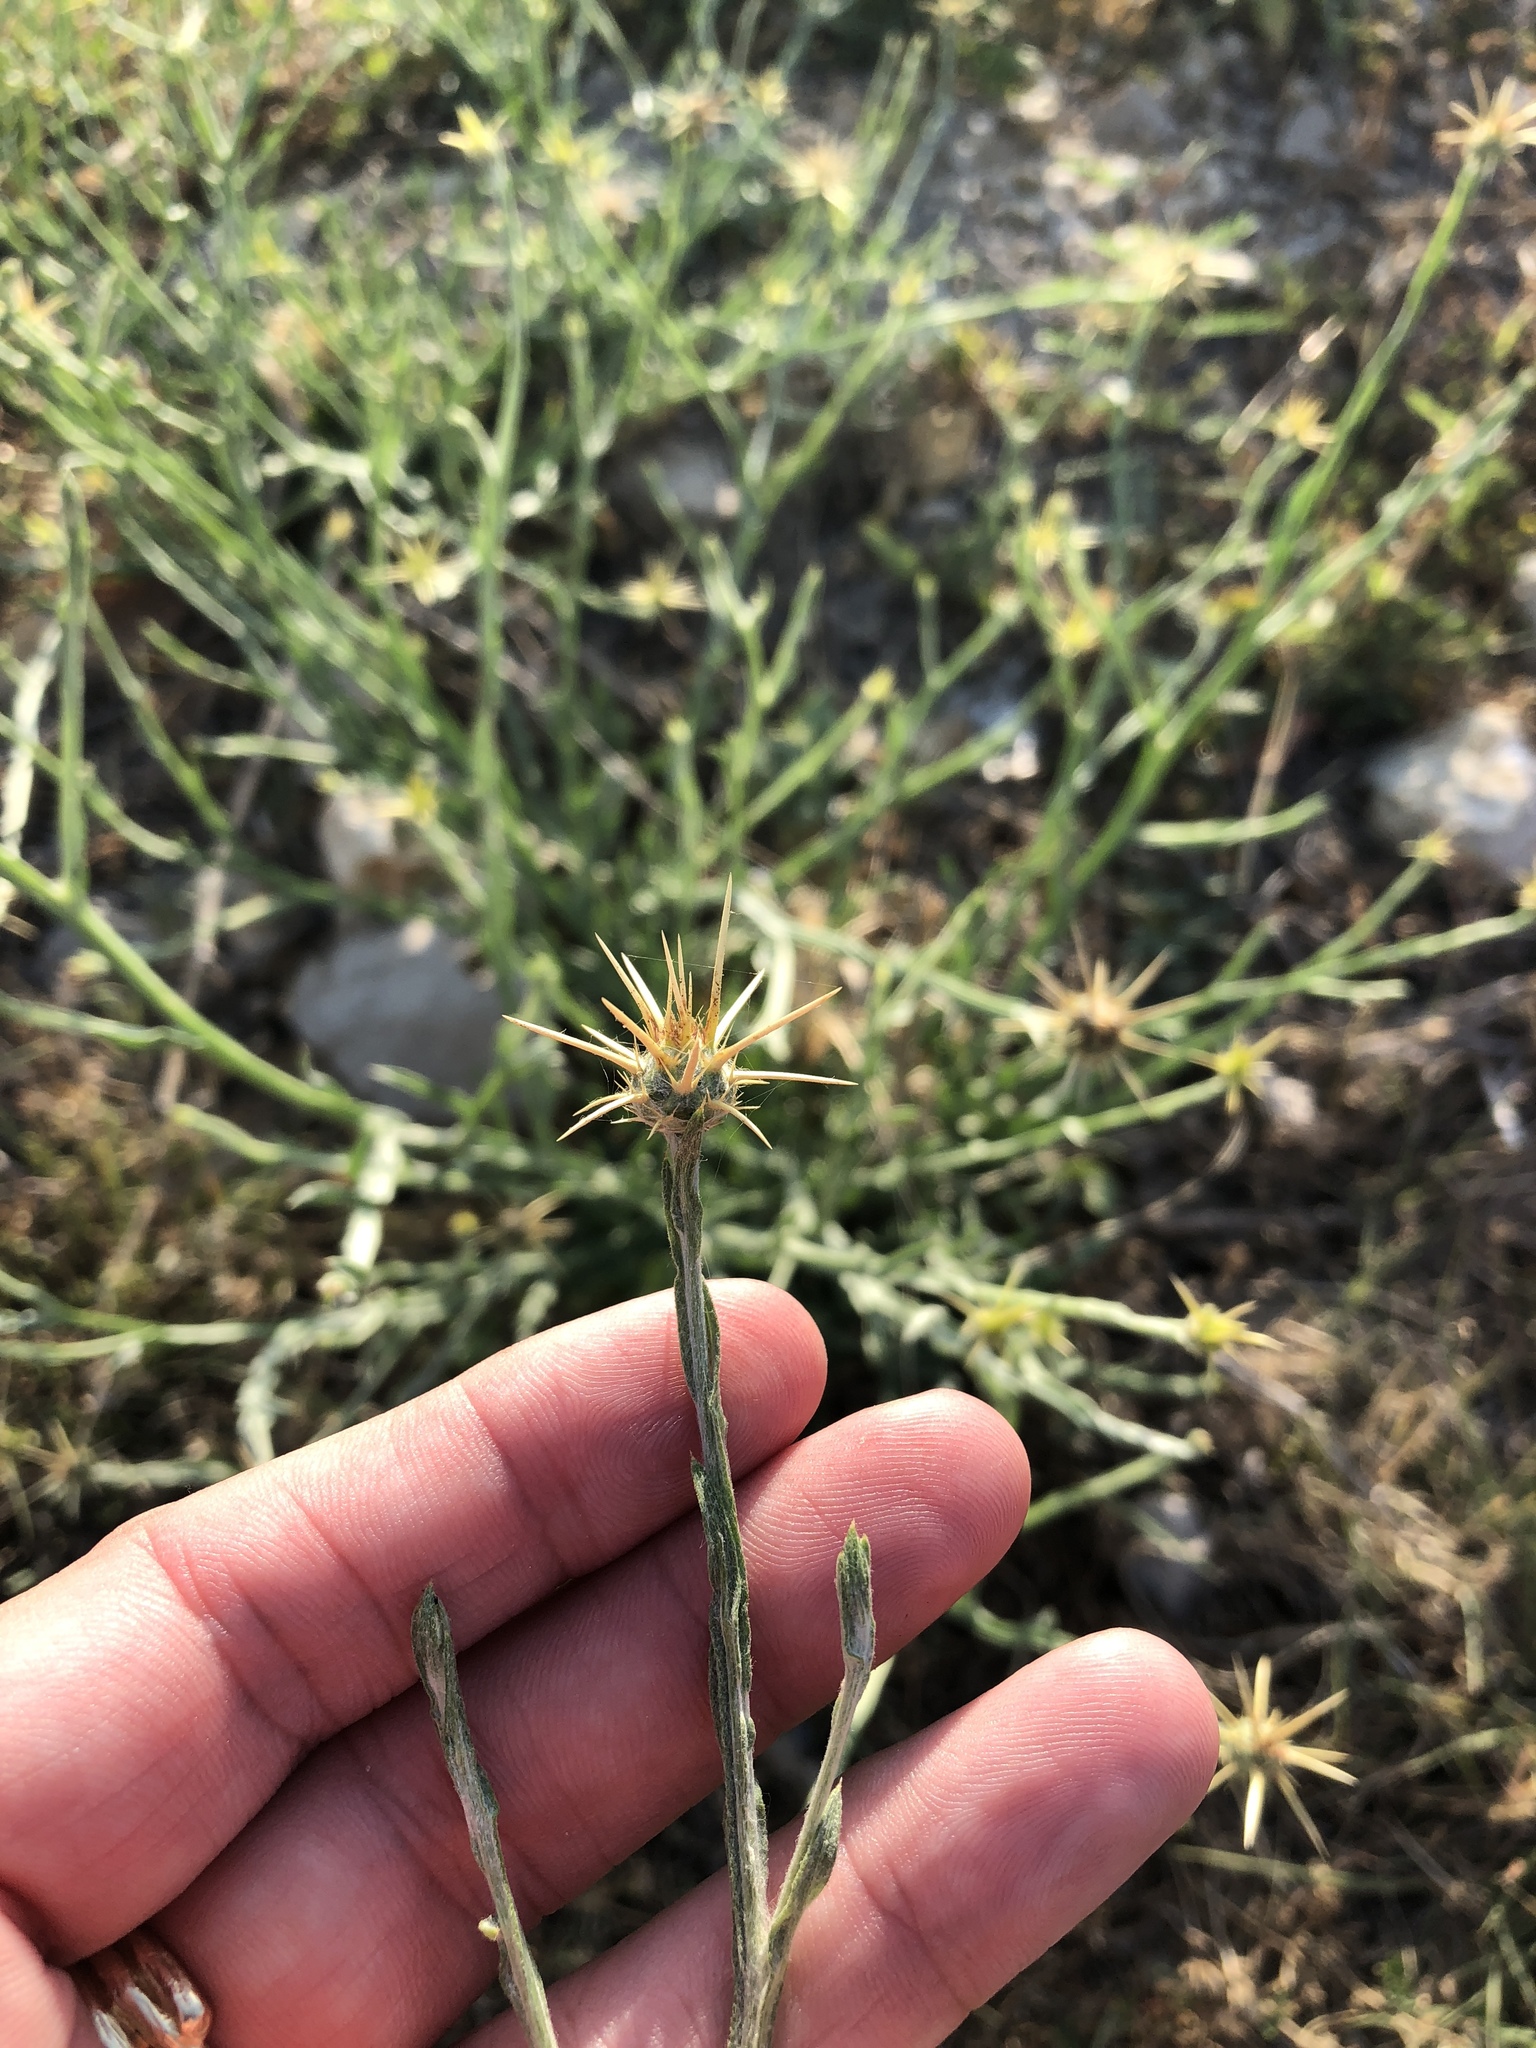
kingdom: Plantae
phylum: Tracheophyta
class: Magnoliopsida
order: Asterales
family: Asteraceae
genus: Centaurea
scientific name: Centaurea solstitialis
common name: Yellow star-thistle
